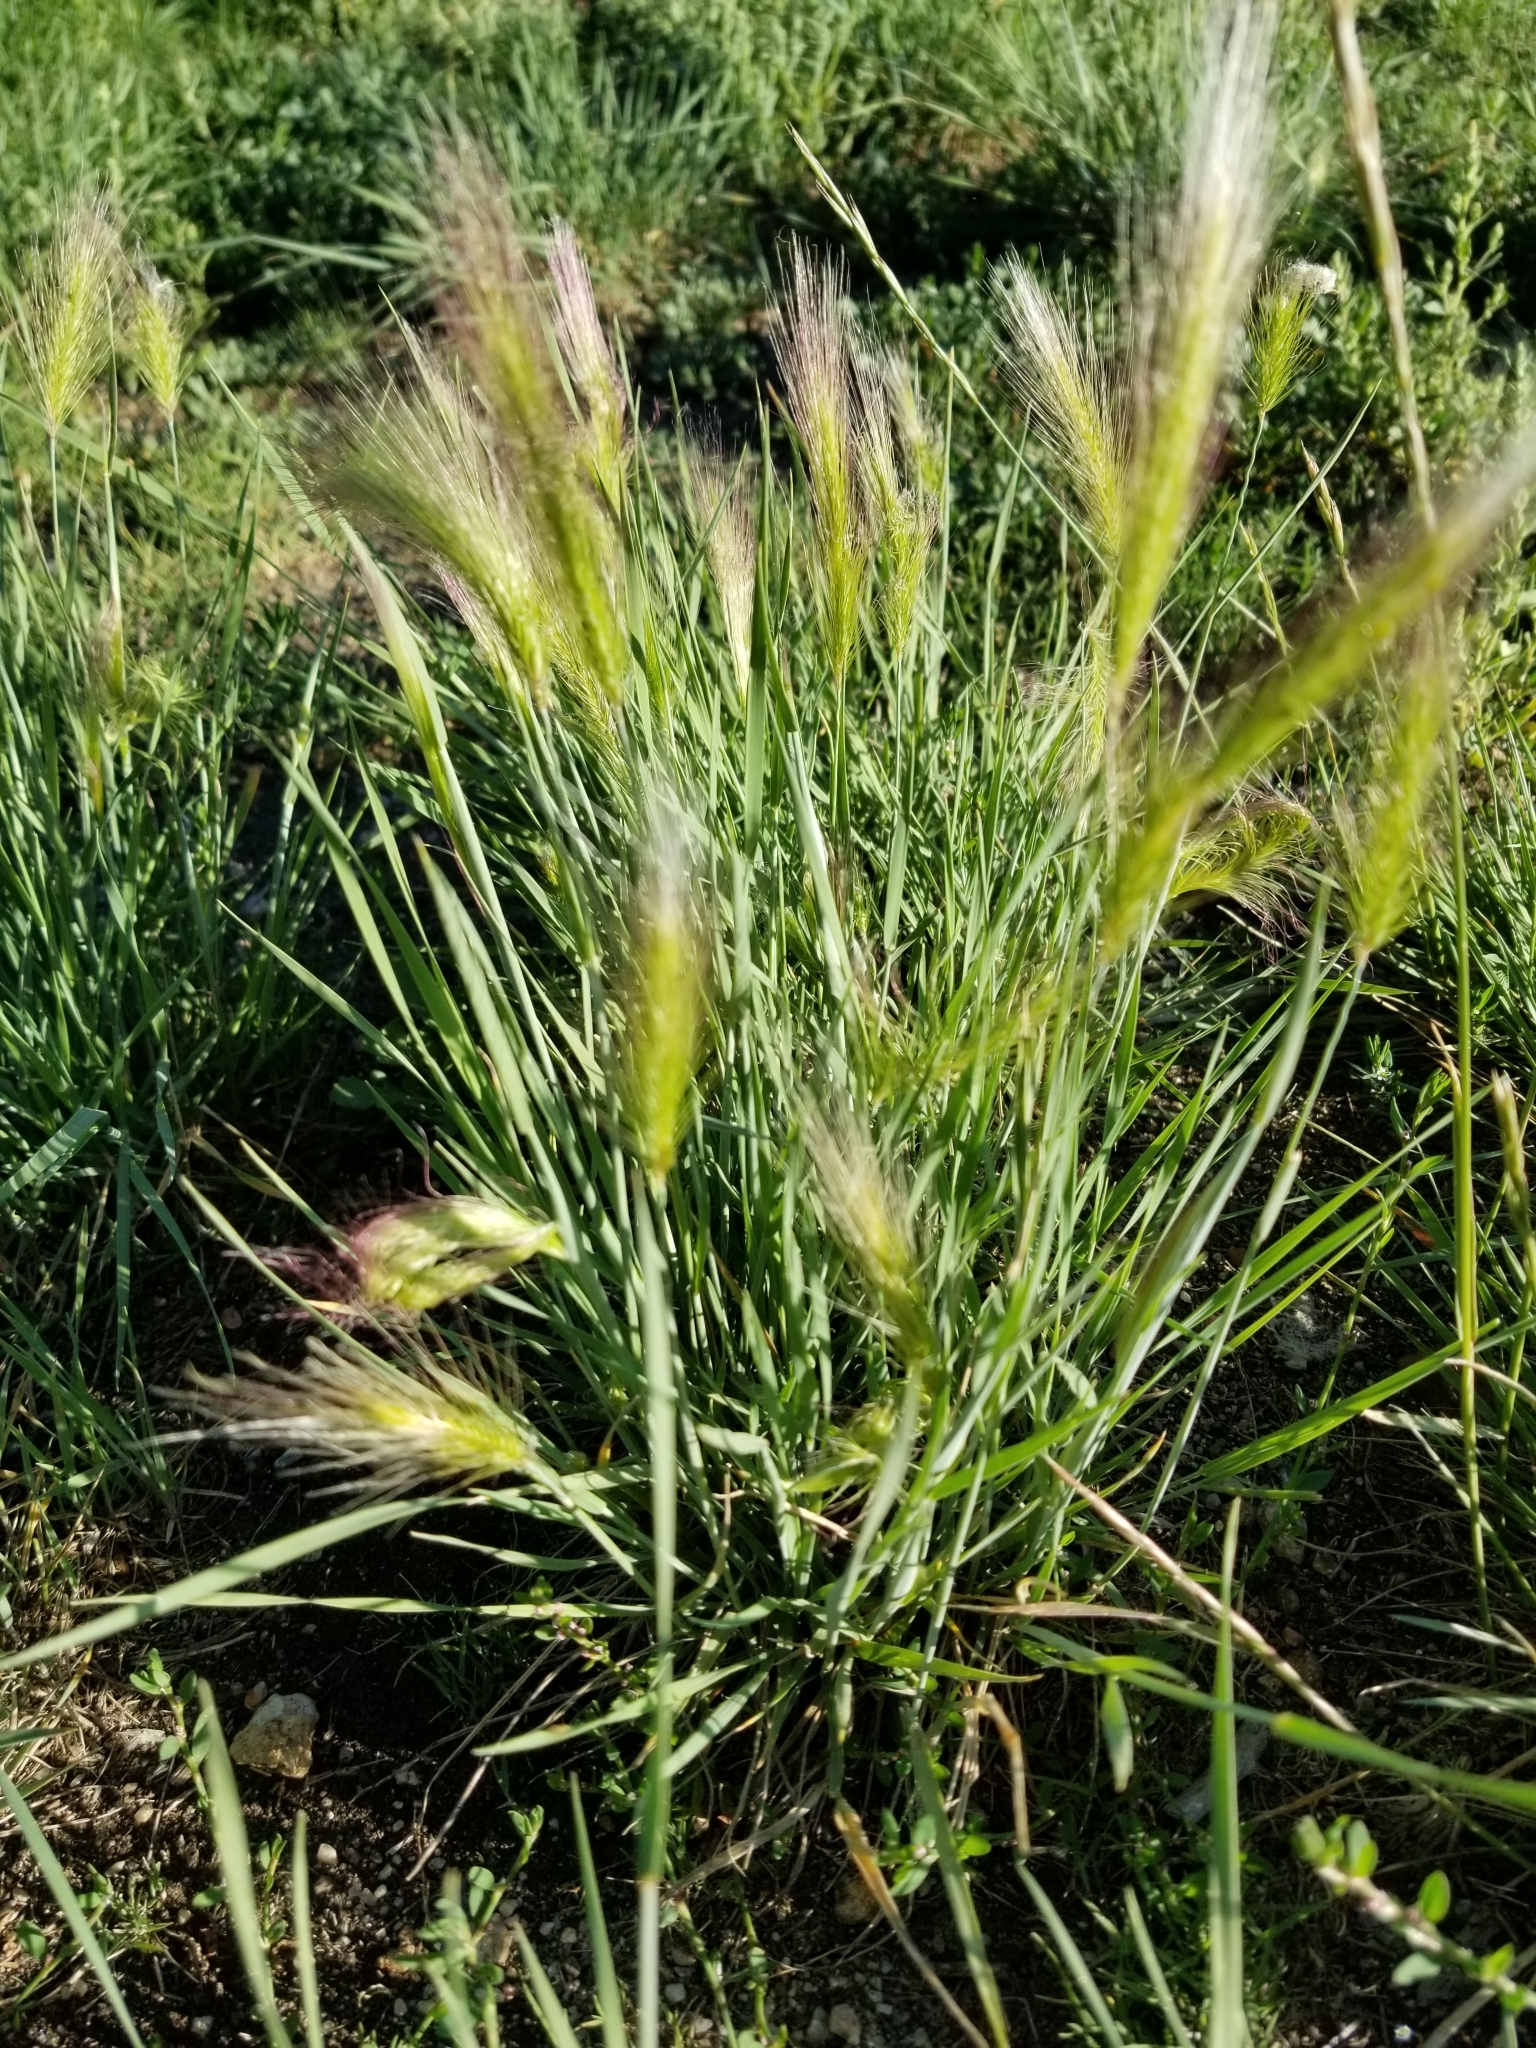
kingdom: Plantae
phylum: Tracheophyta
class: Liliopsida
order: Poales
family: Poaceae
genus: Hordeum
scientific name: Hordeum jubatum
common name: Foxtail barley
